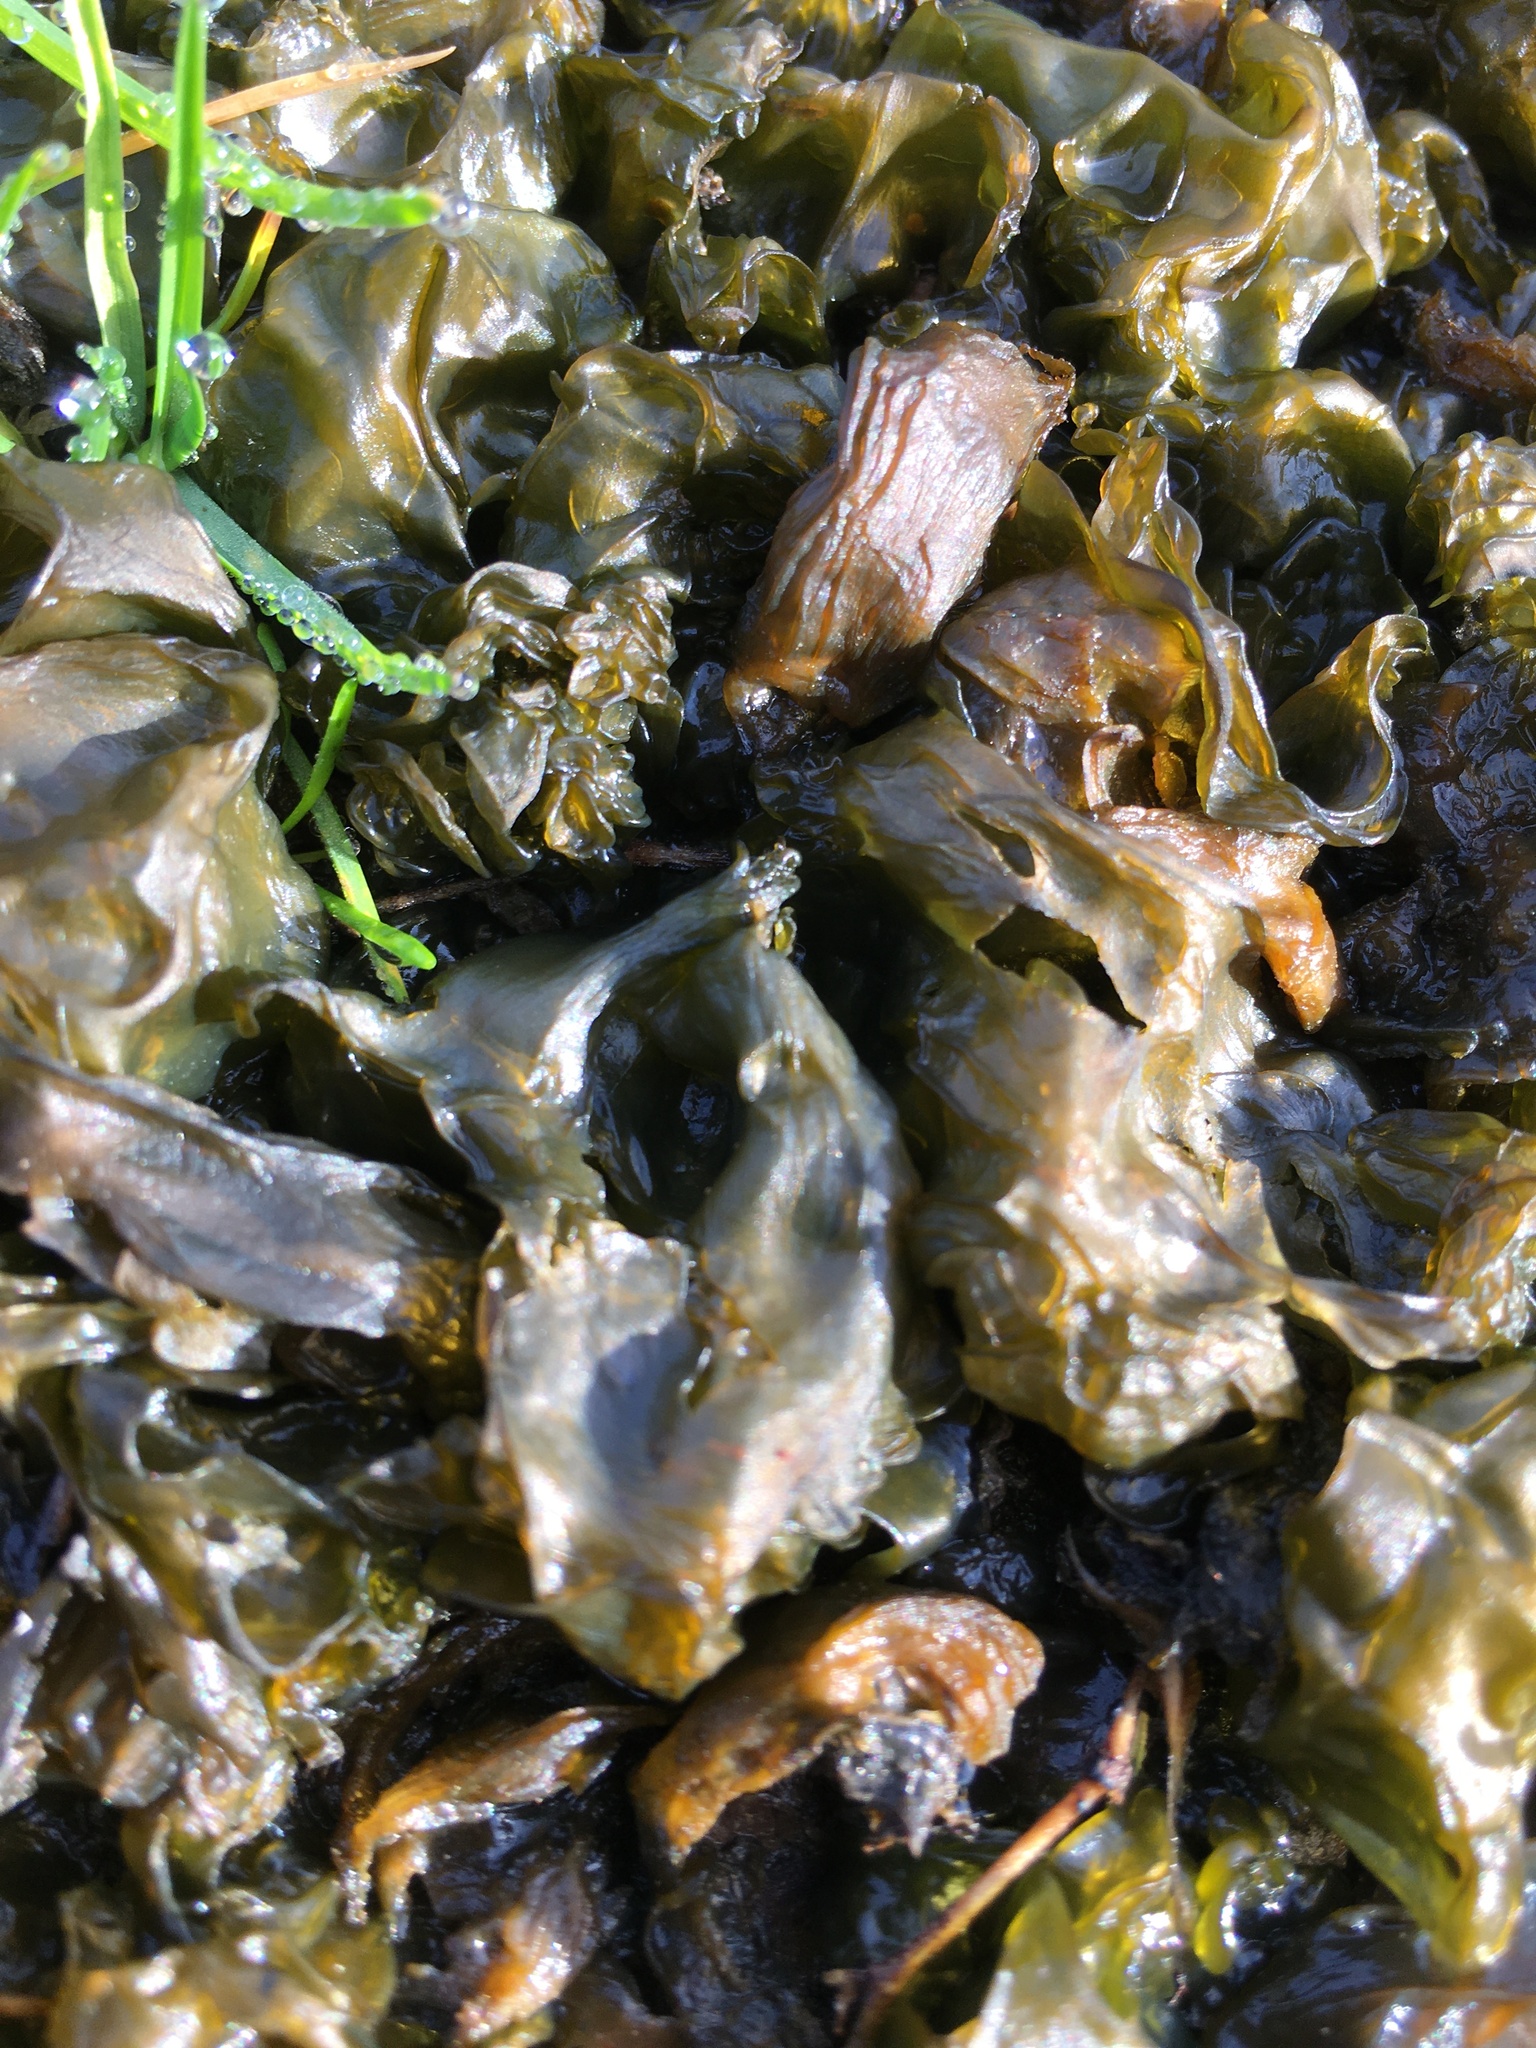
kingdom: Bacteria
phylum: Cyanobacteria
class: Cyanobacteriia
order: Cyanobacteriales
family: Nostocaceae
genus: Nostoc
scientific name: Nostoc commune
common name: Star jelly
